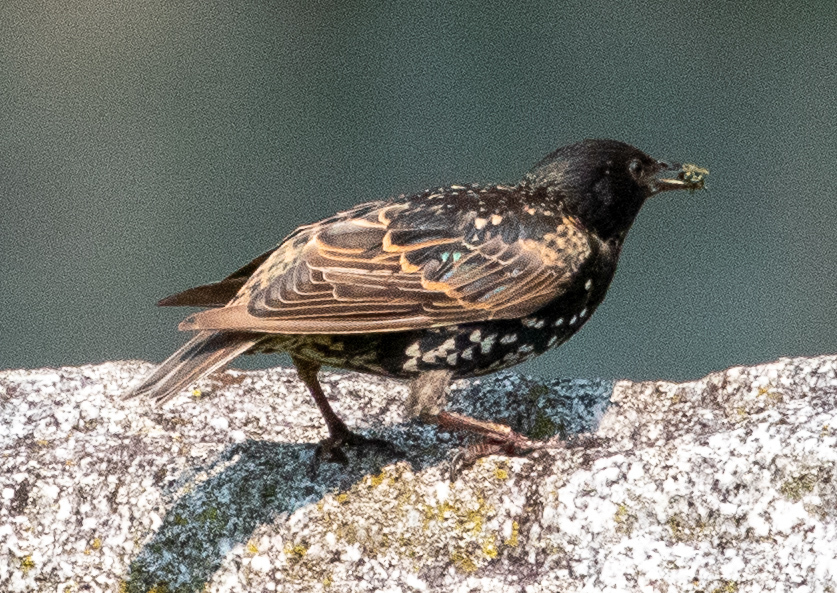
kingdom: Animalia
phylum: Chordata
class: Aves
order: Passeriformes
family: Sturnidae
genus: Sturnus
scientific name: Sturnus vulgaris
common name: Common starling
